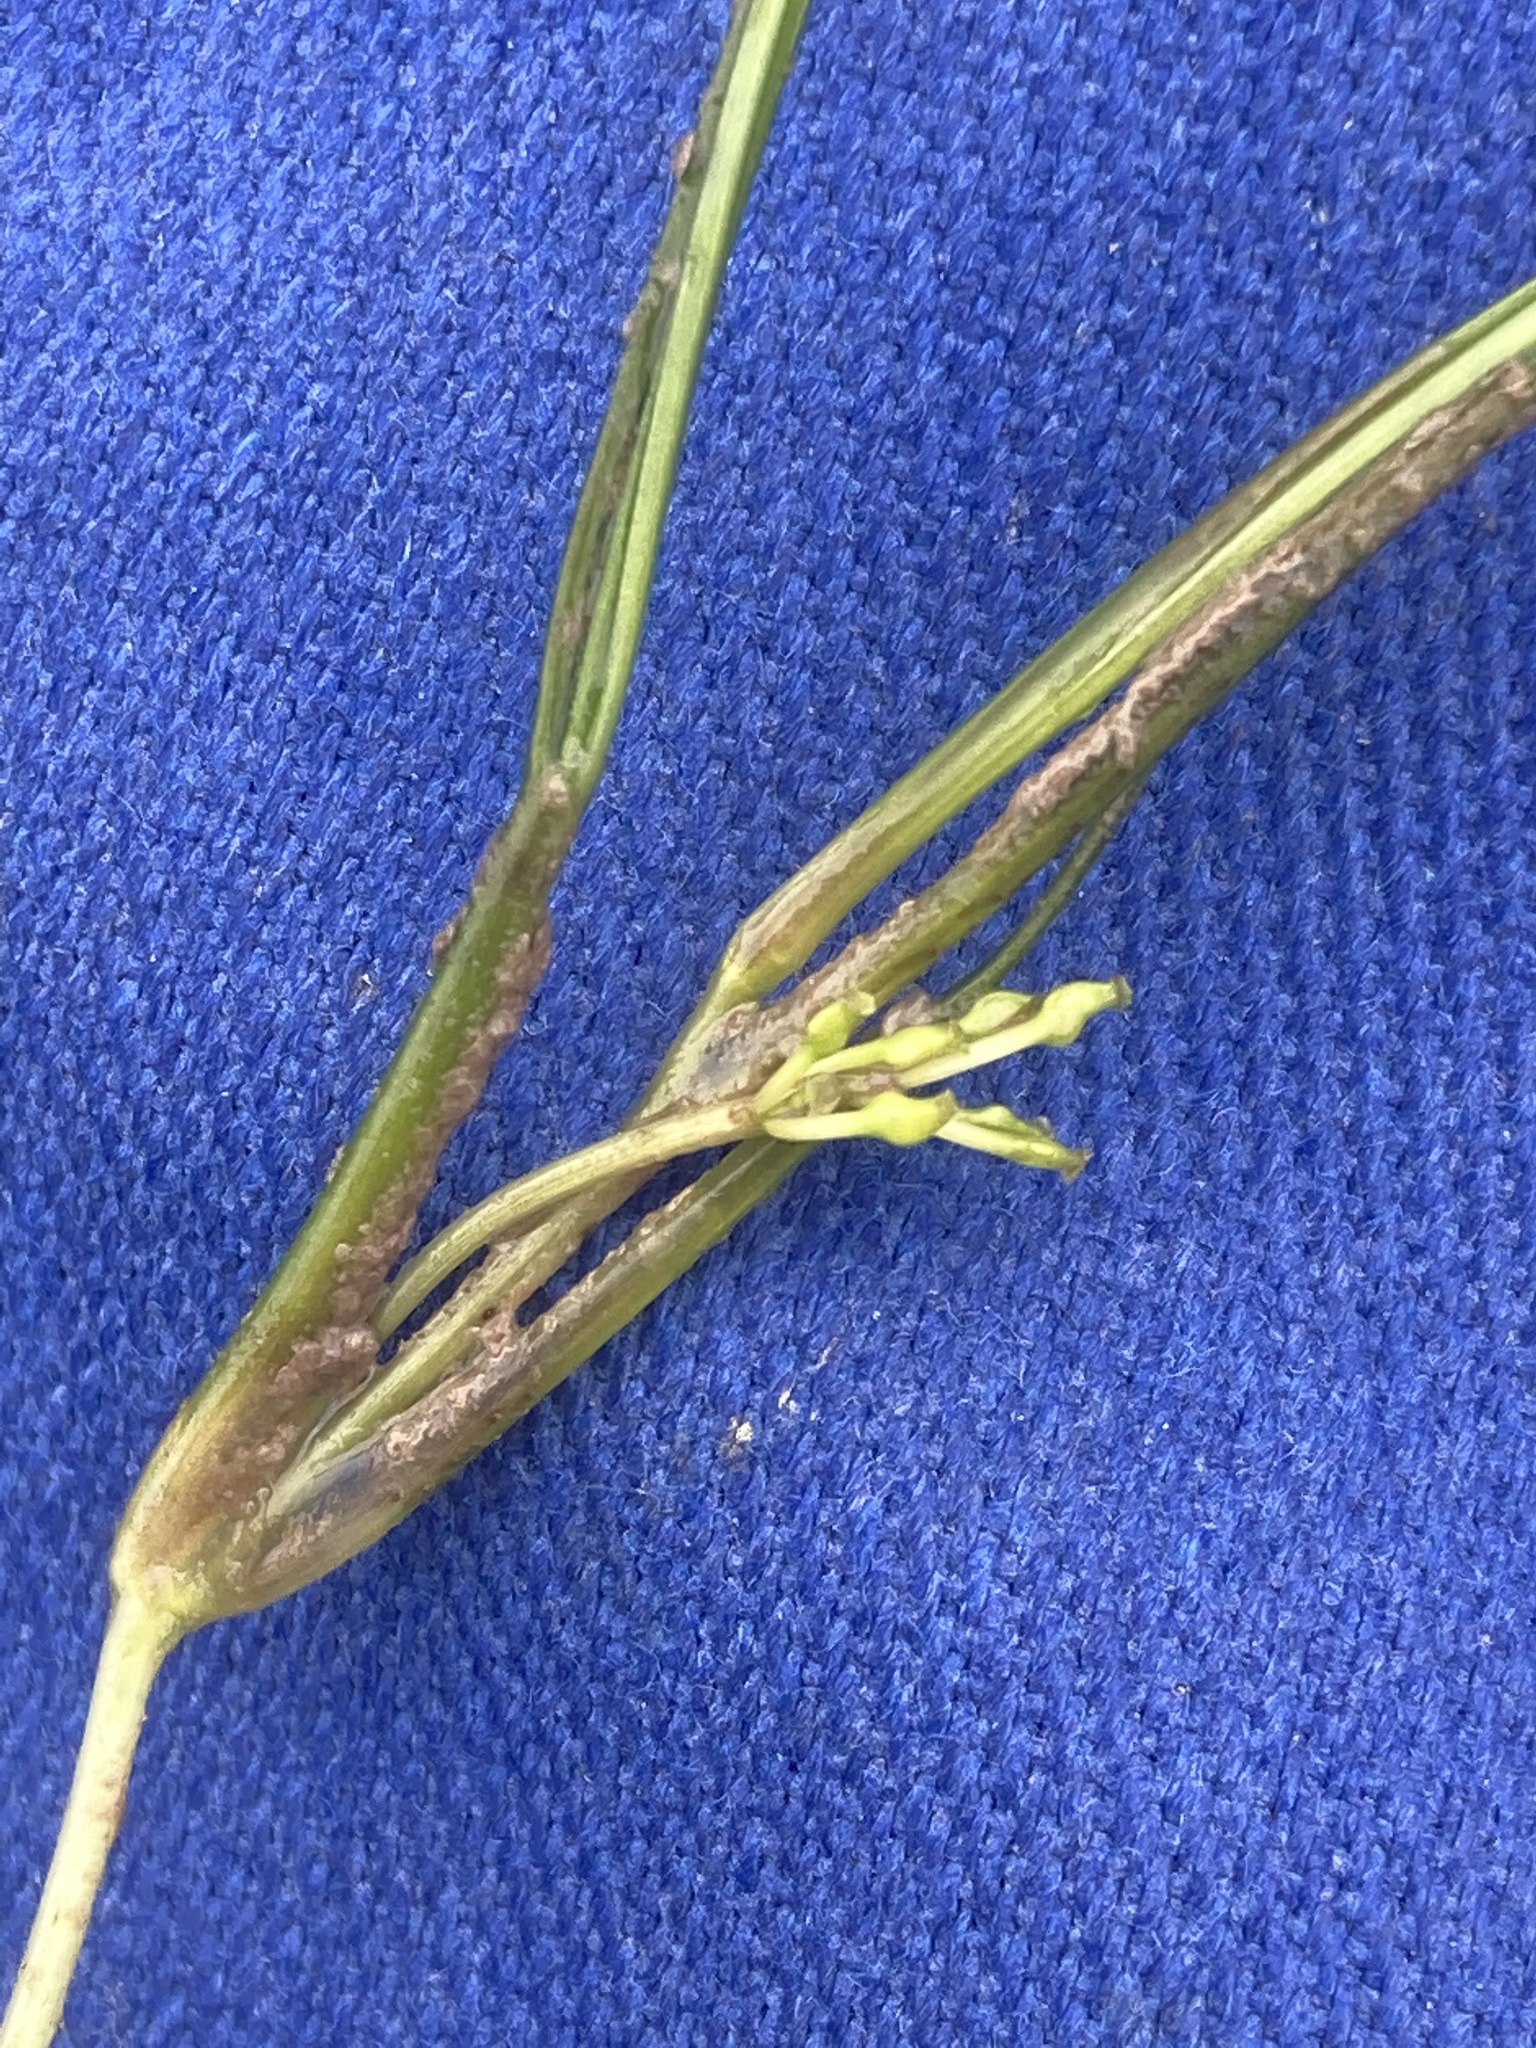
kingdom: Plantae
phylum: Tracheophyta
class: Liliopsida
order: Alismatales
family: Ruppiaceae
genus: Ruppia
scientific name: Ruppia maritima
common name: Beaked tasselweed
